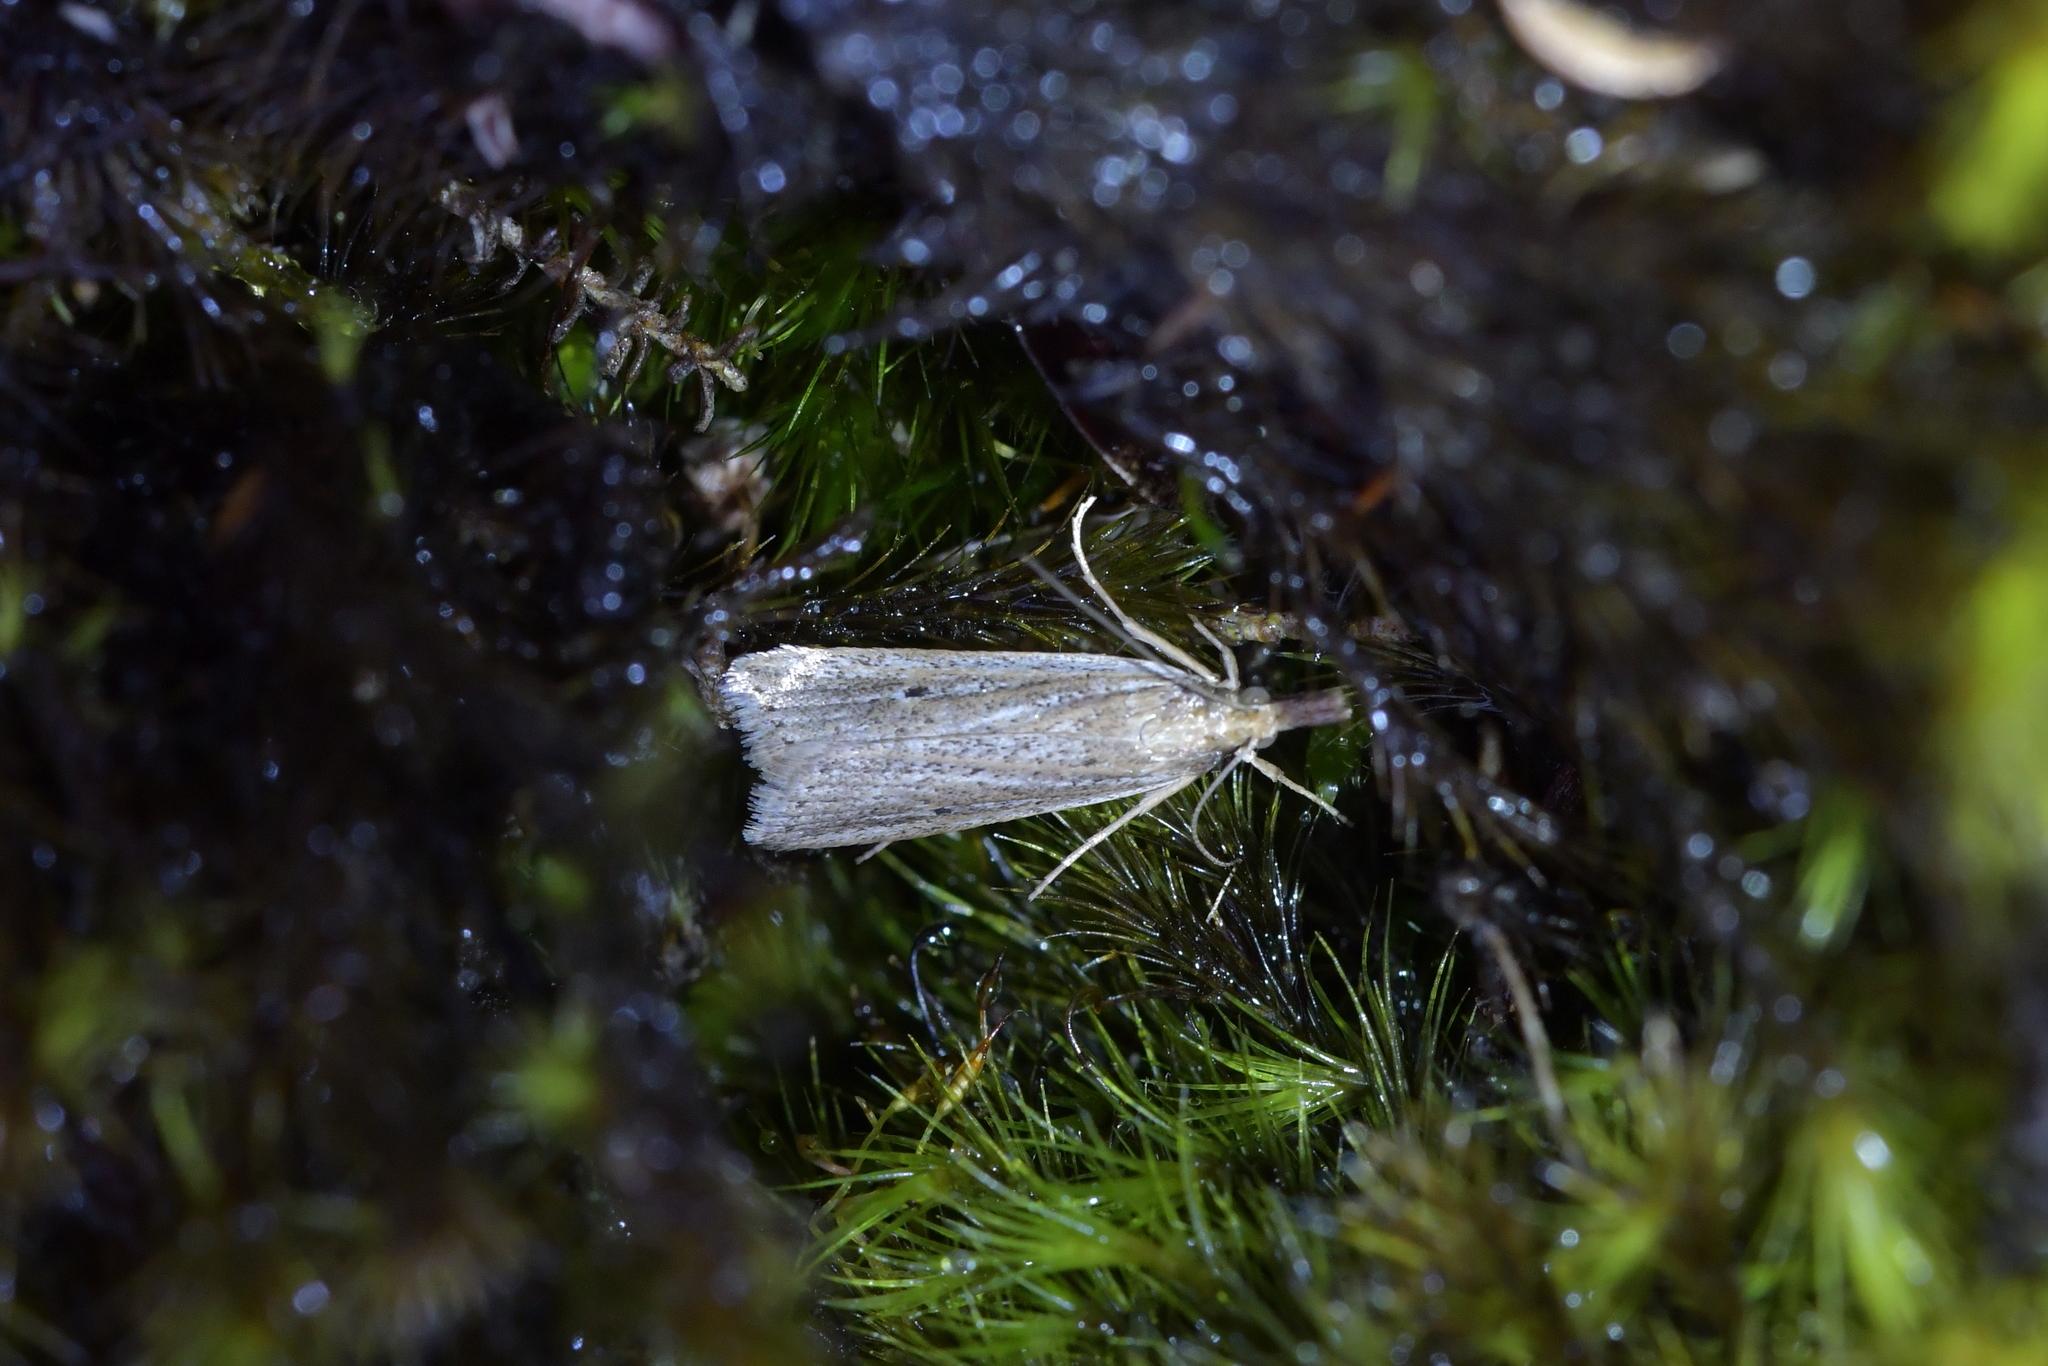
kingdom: Animalia
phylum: Arthropoda
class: Insecta
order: Lepidoptera
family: Crambidae
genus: Eudonia
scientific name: Eudonia sabulosella
